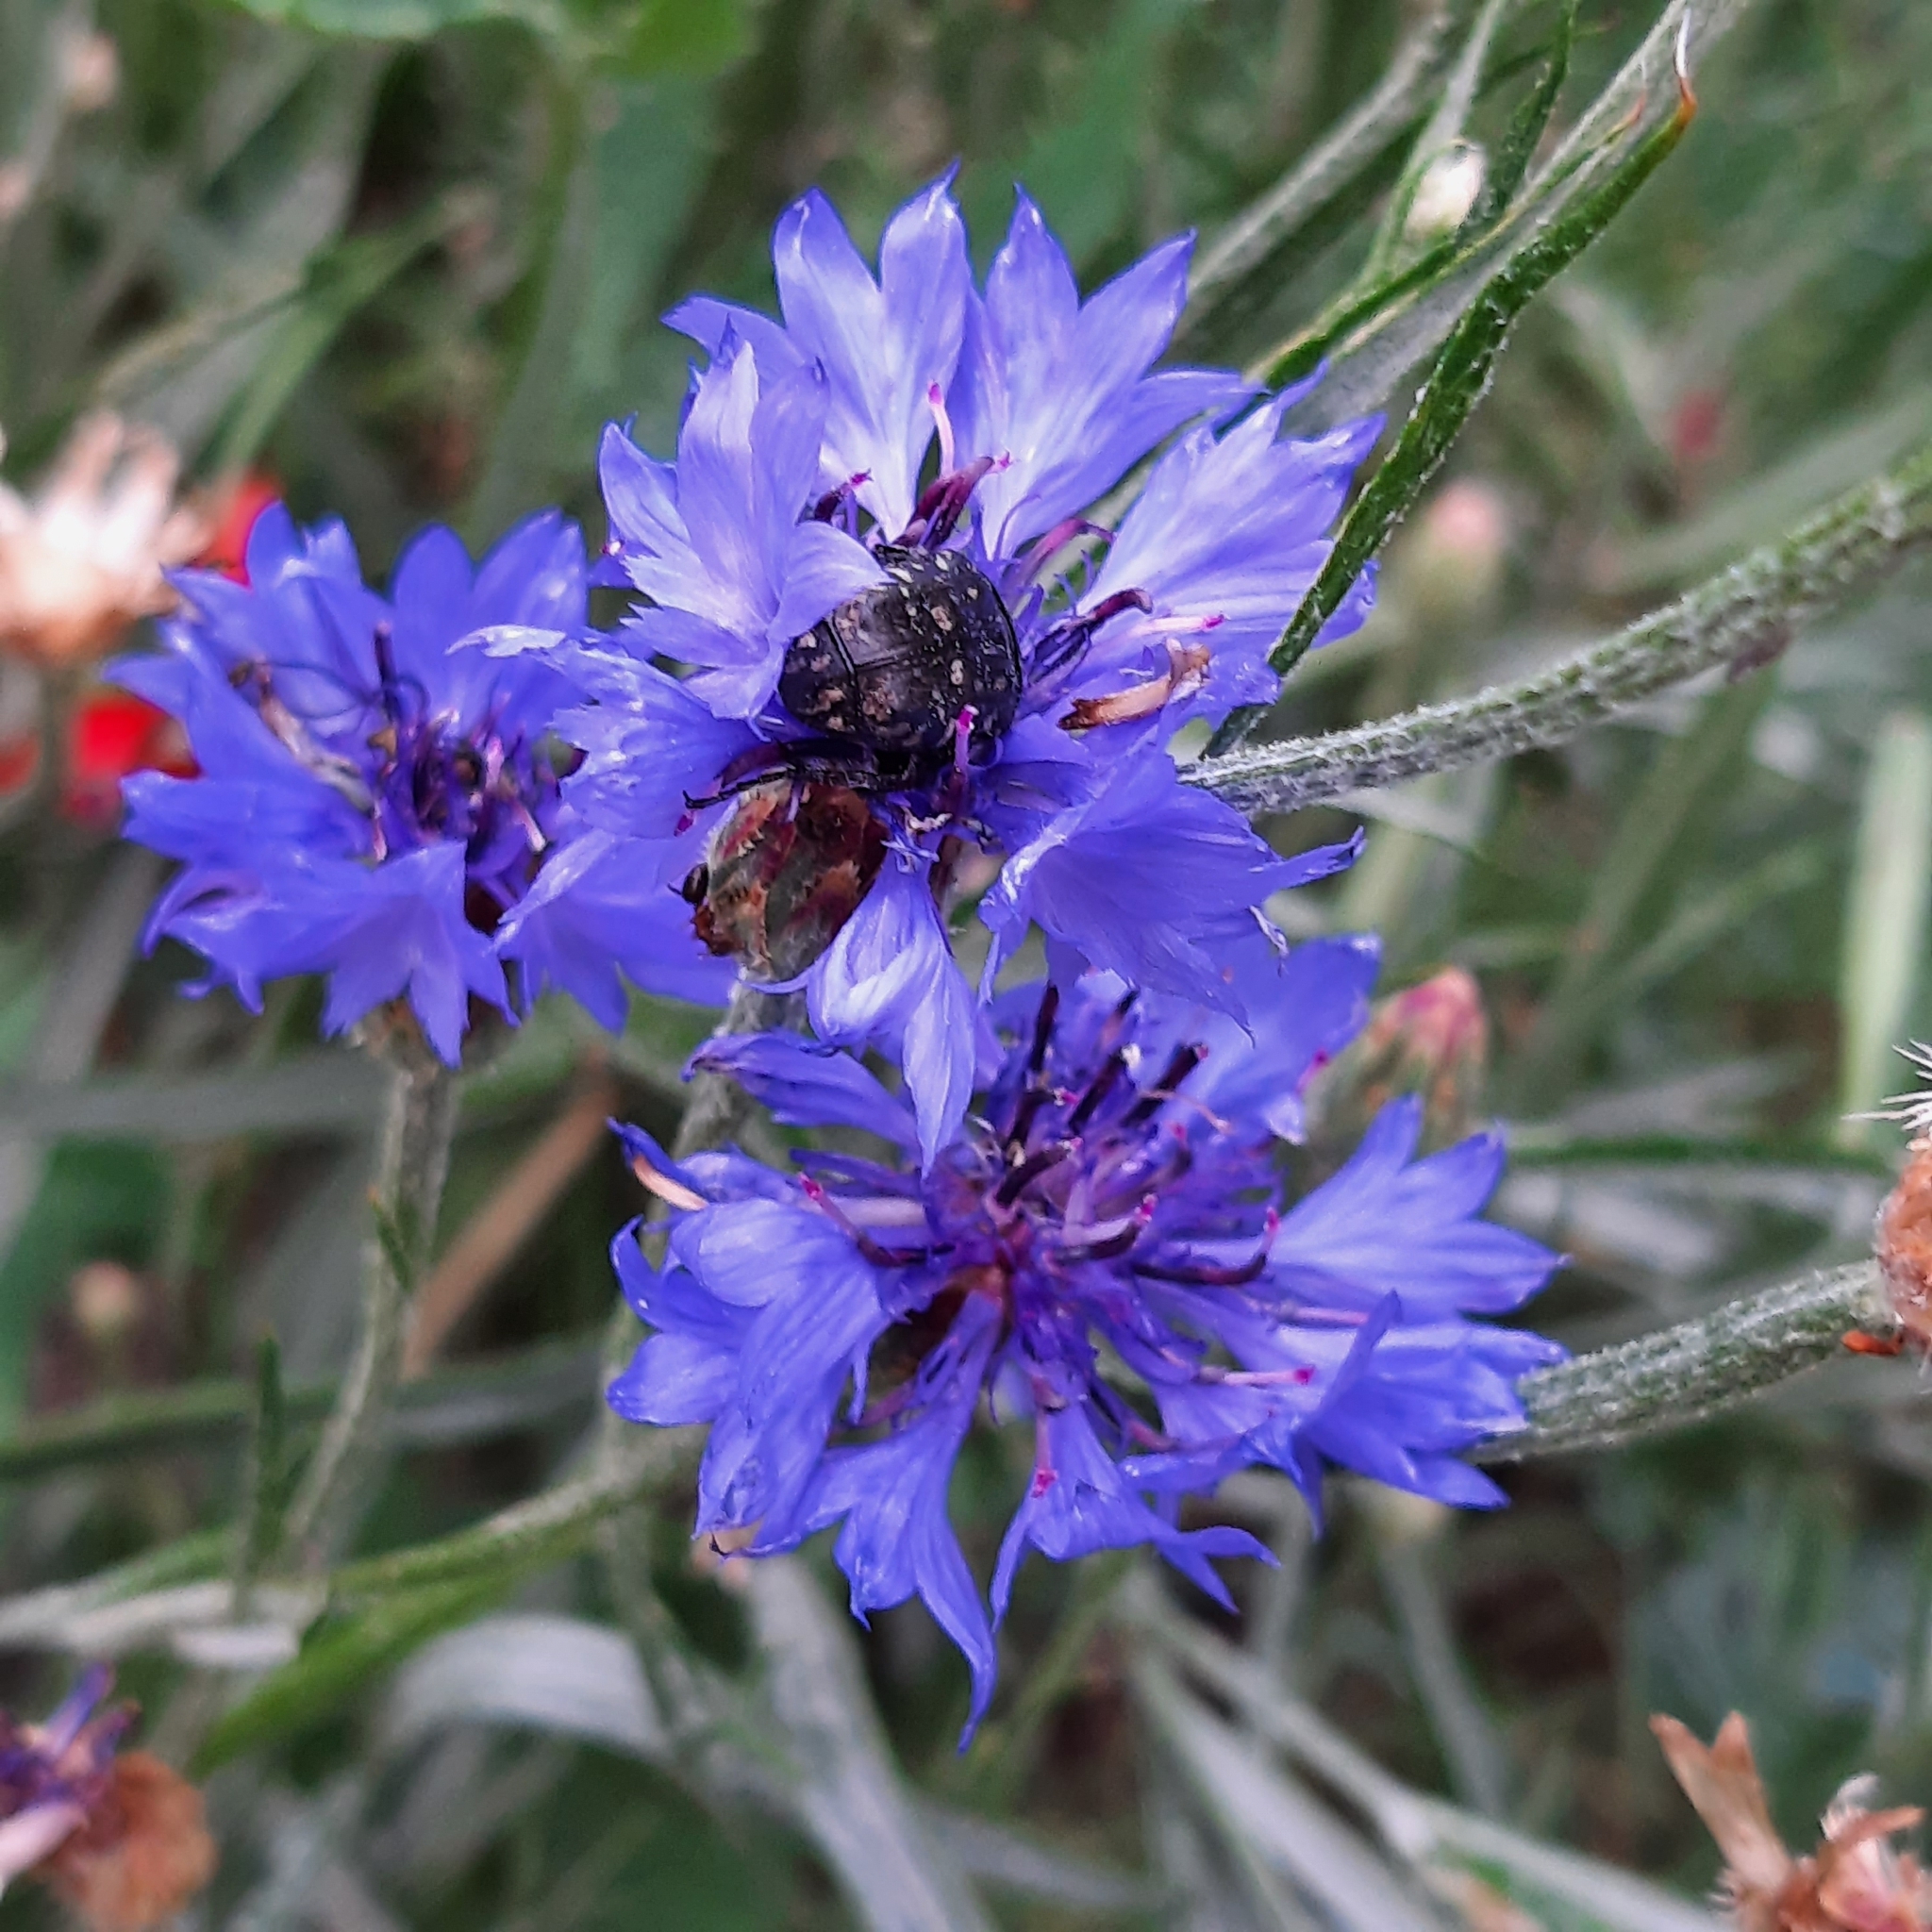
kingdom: Plantae
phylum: Tracheophyta
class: Magnoliopsida
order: Asterales
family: Asteraceae
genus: Centaurea
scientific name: Centaurea cyanus
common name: Cornflower
